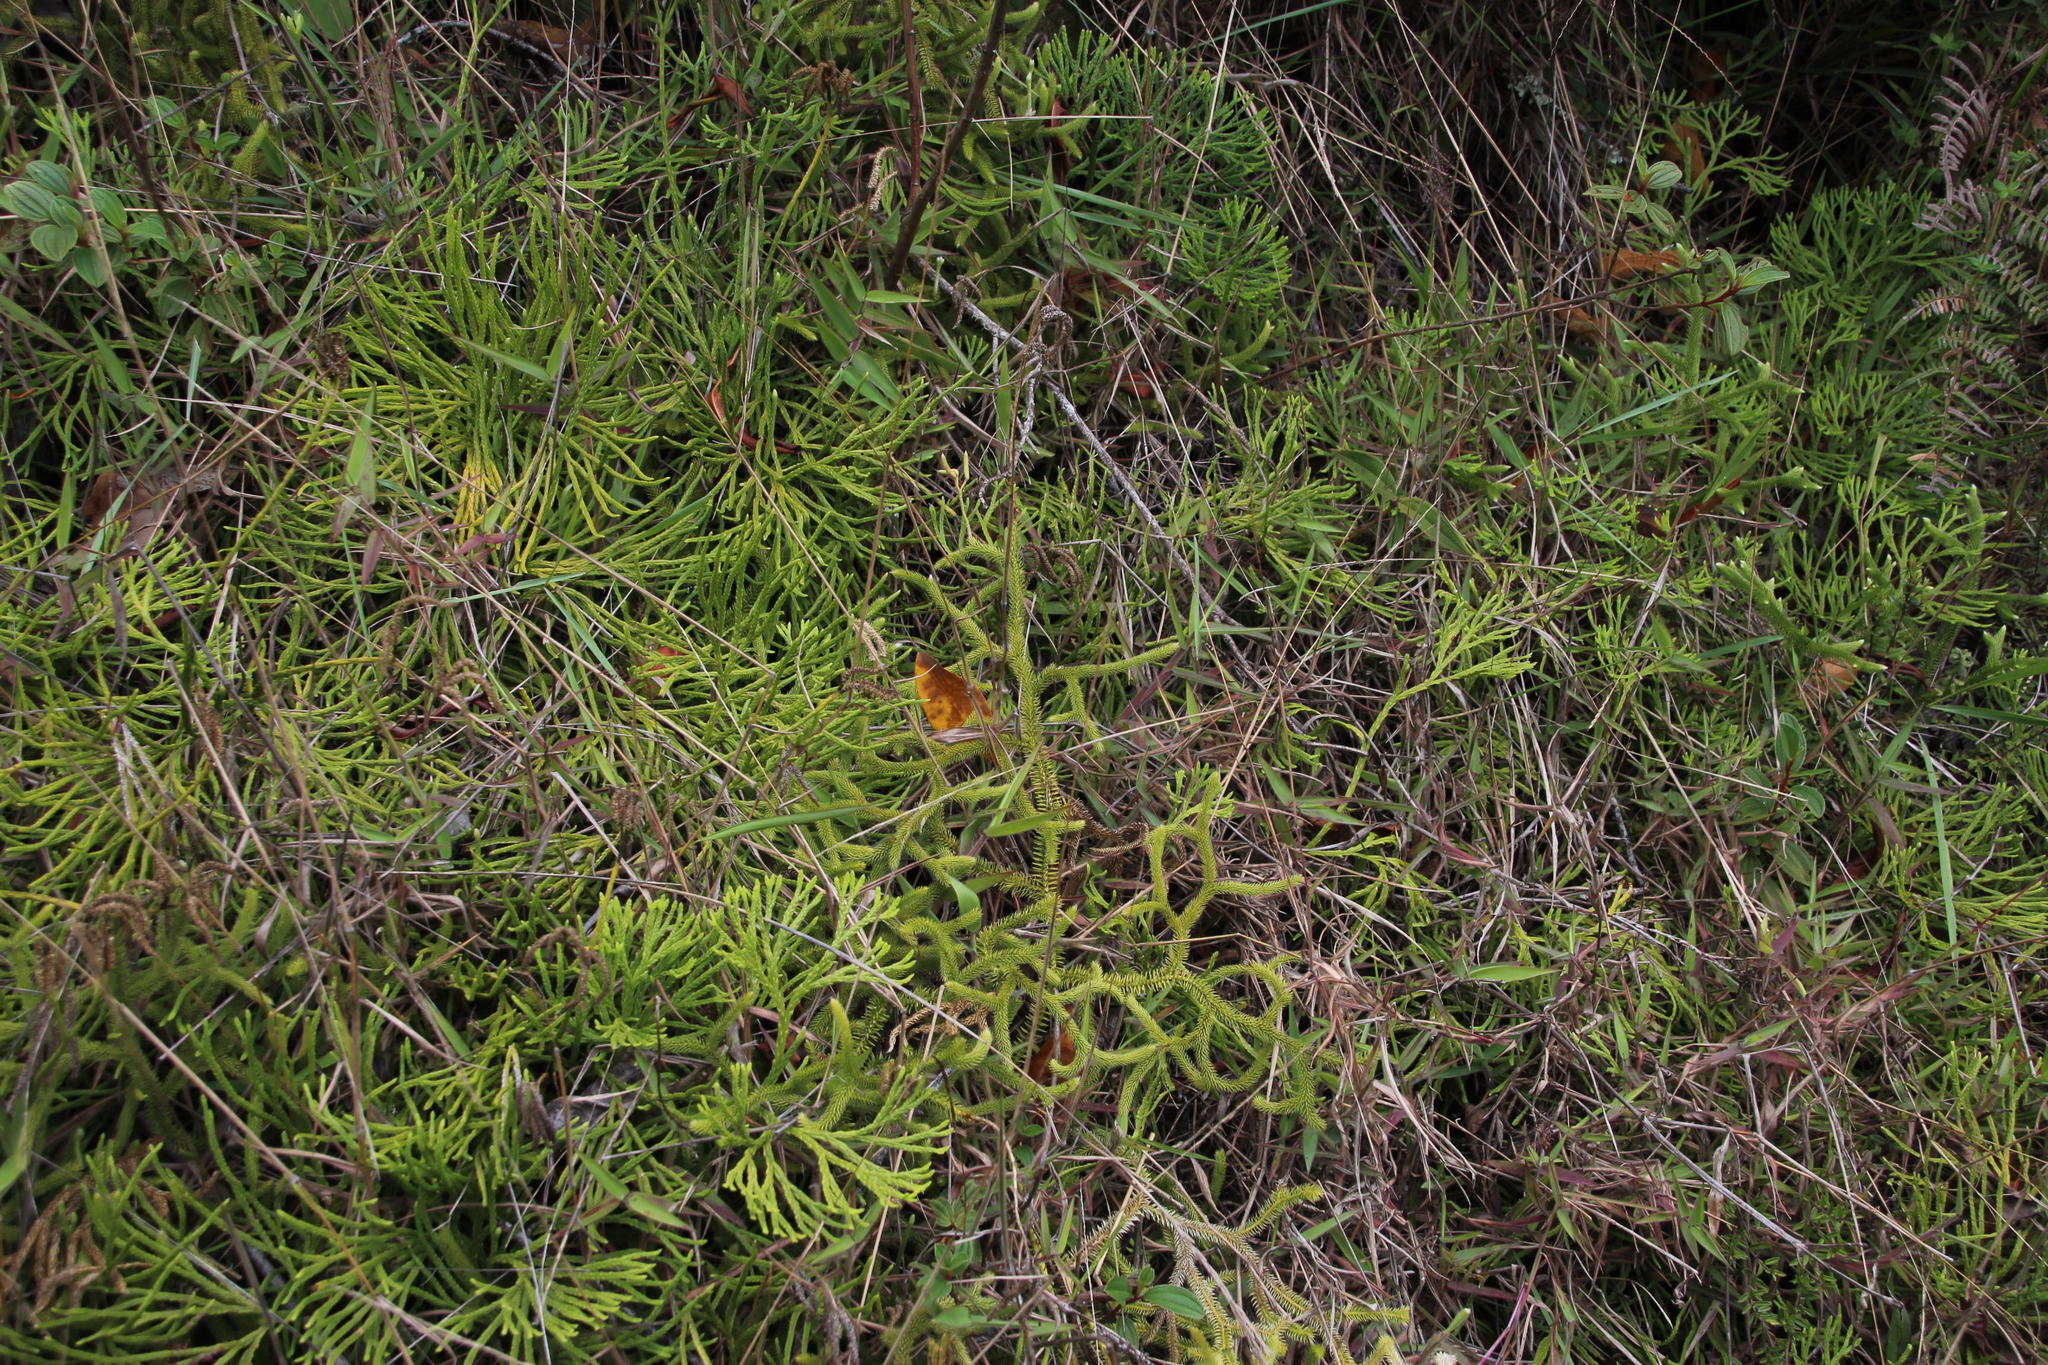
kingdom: Plantae
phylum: Tracheophyta
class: Lycopodiopsida
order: Lycopodiales
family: Lycopodiaceae
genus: Diphasiastrum
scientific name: Diphasiastrum thyoides
